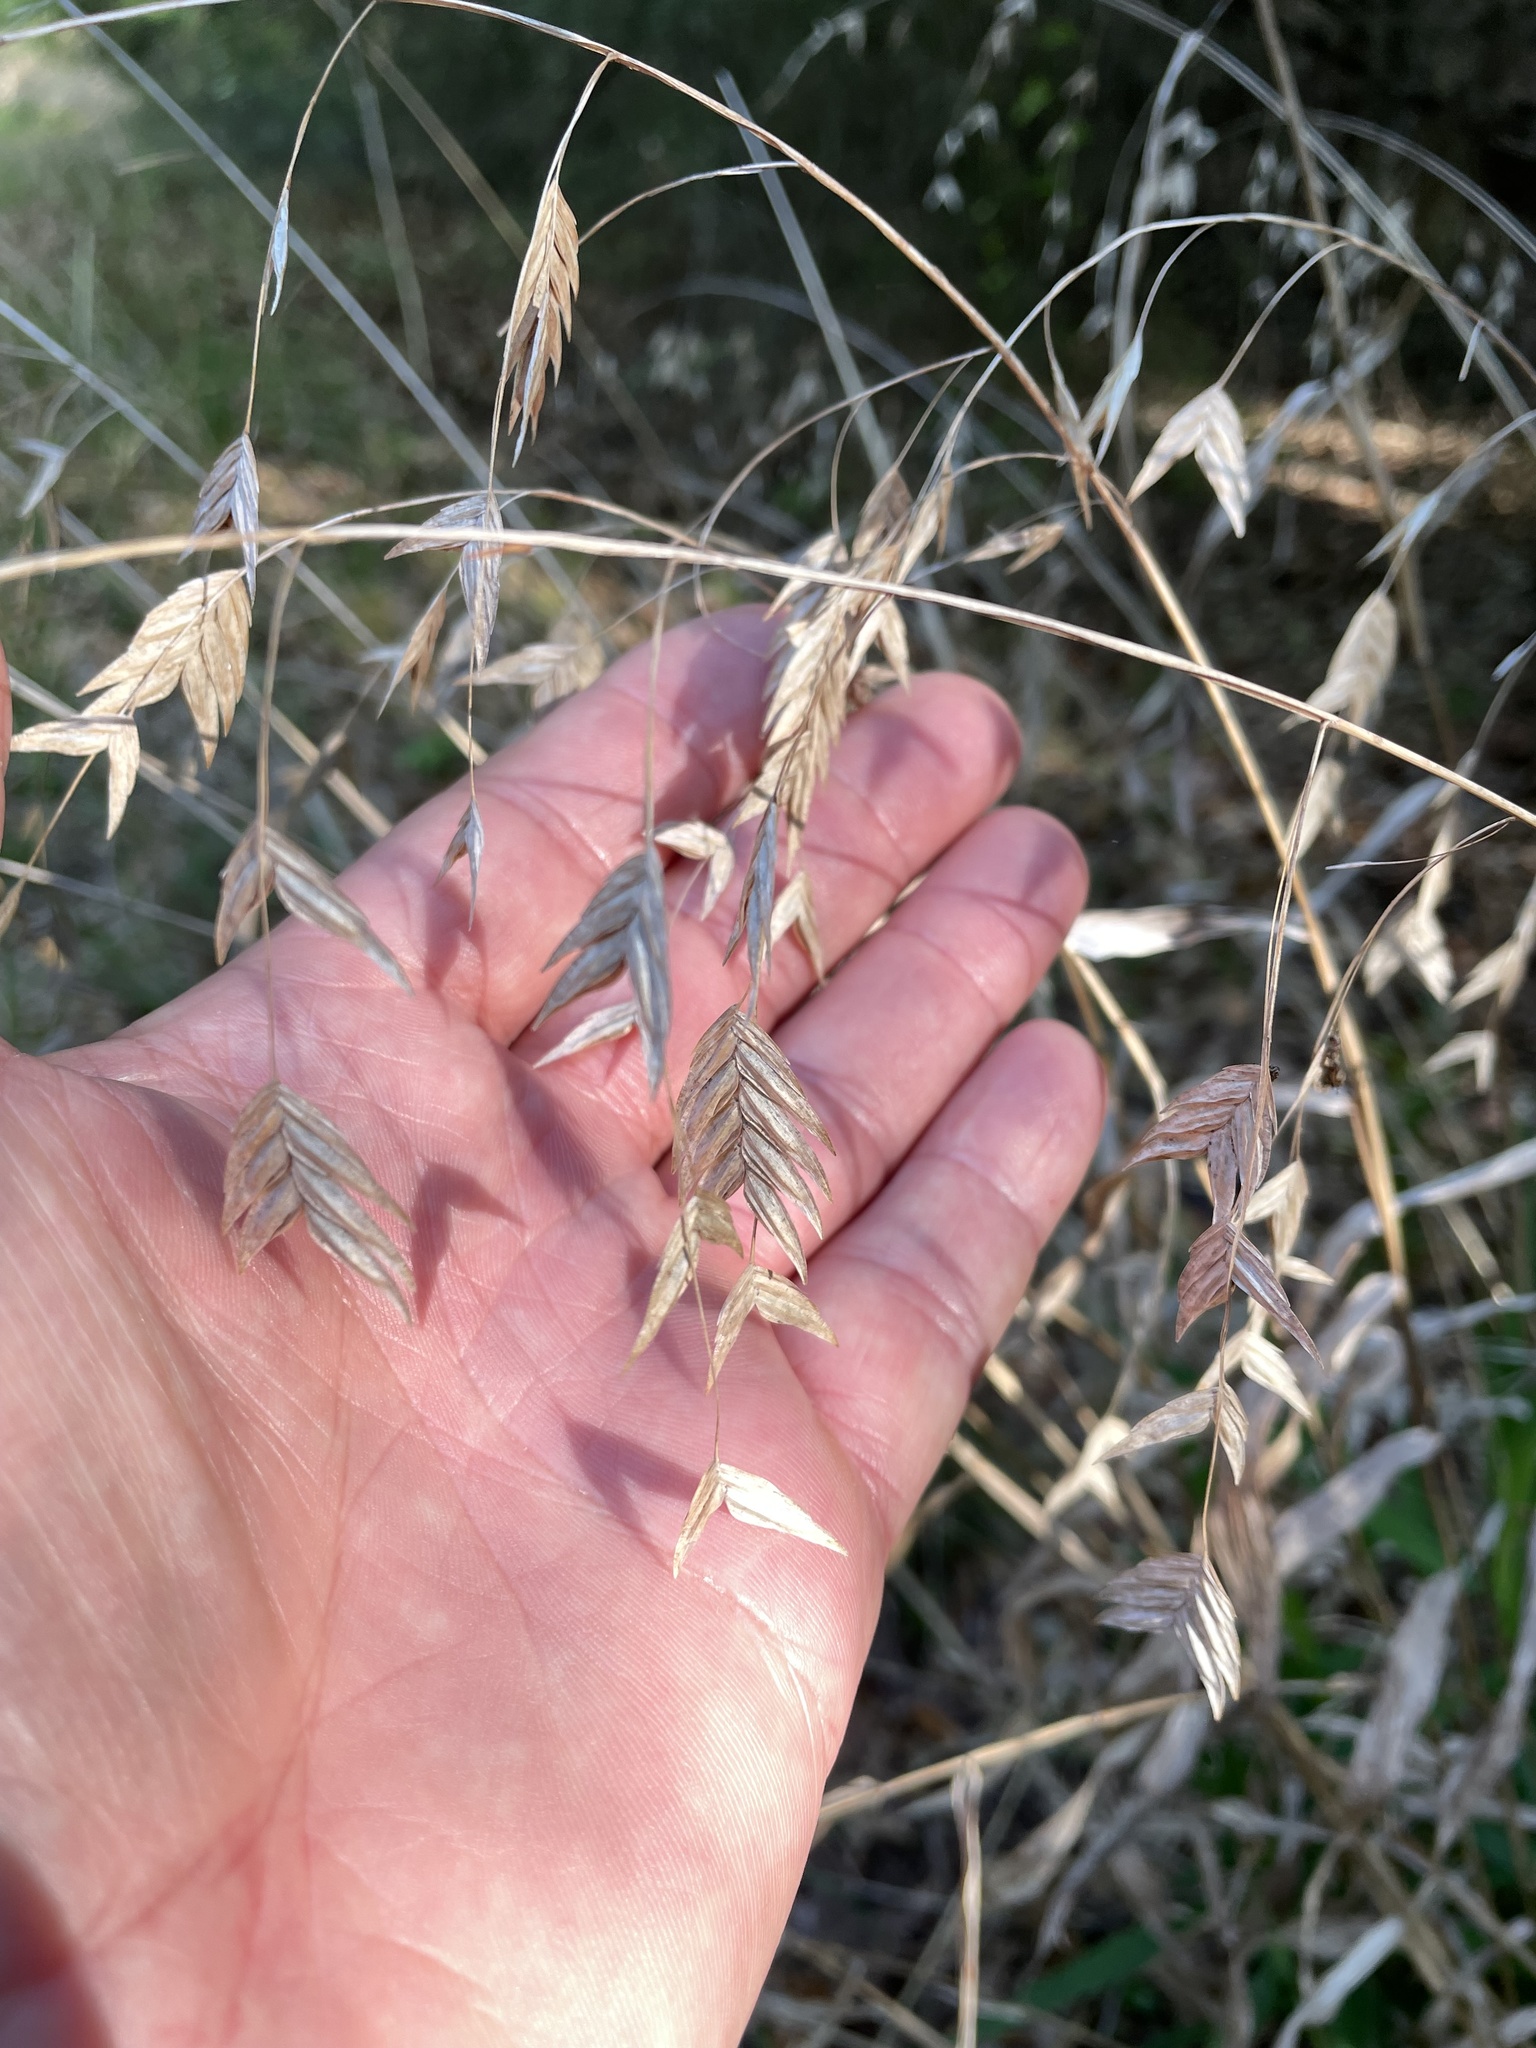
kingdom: Plantae
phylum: Tracheophyta
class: Liliopsida
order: Poales
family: Poaceae
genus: Chasmanthium
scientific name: Chasmanthium latifolium
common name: Broad-leaved chasmanthium
